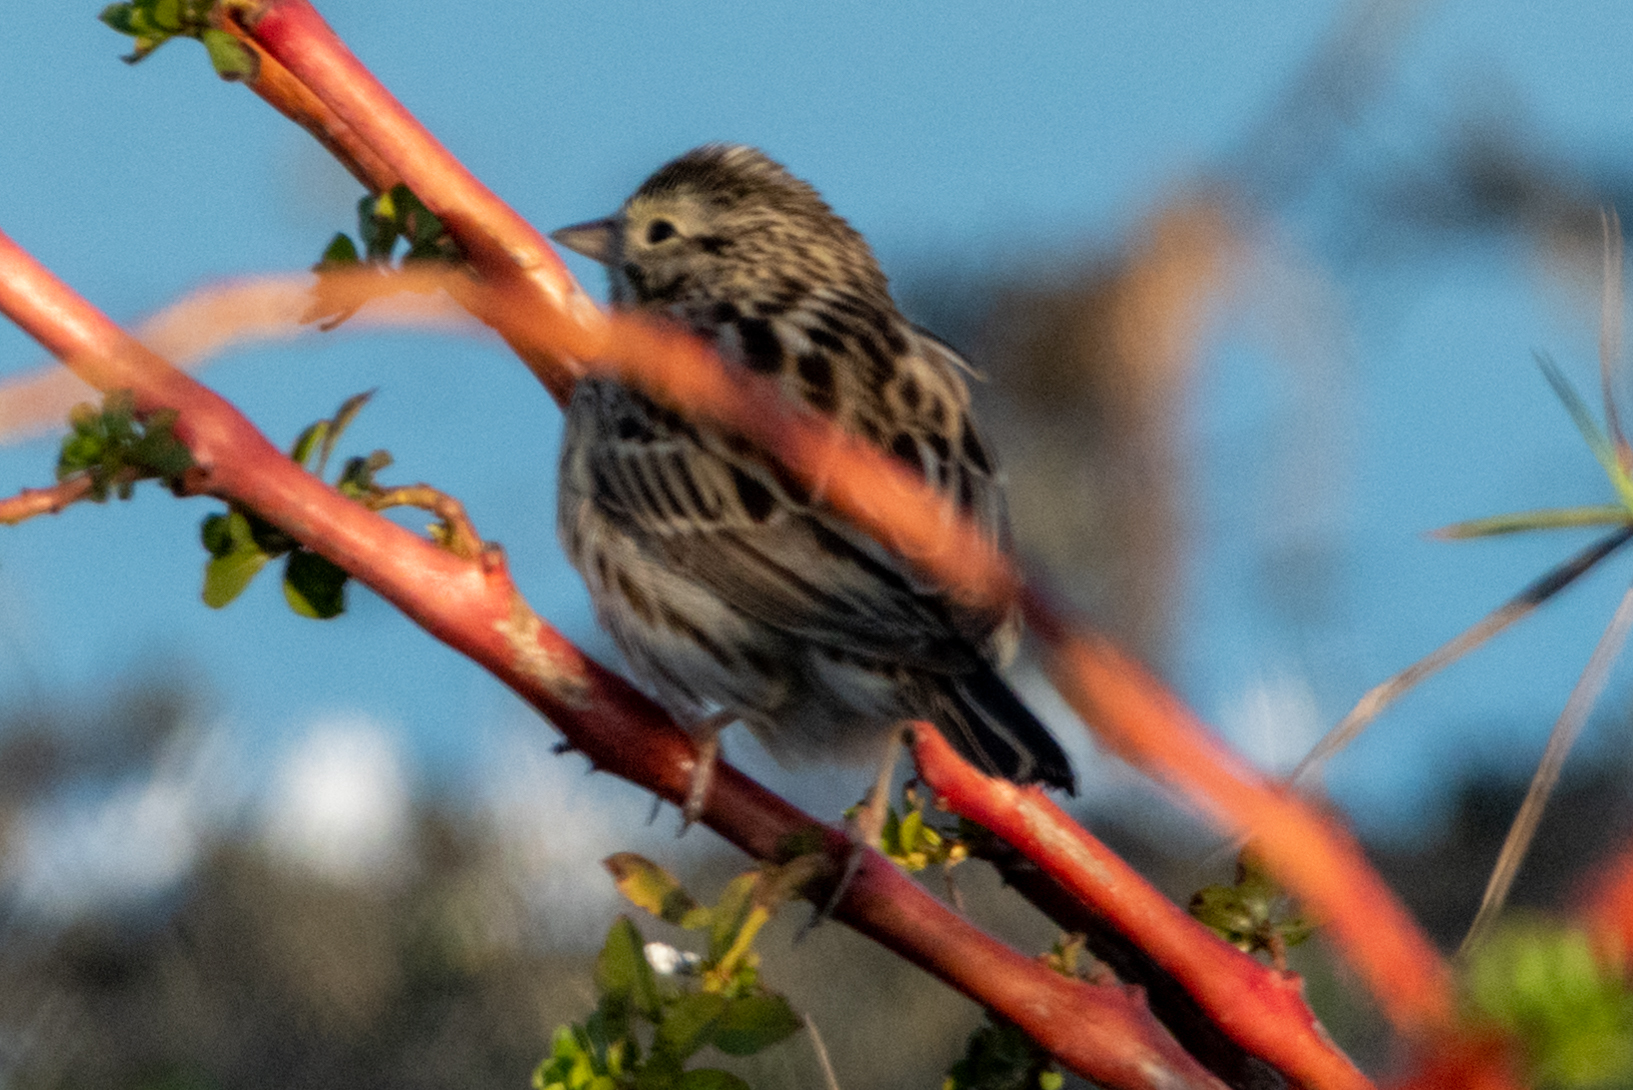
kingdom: Animalia
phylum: Chordata
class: Aves
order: Passeriformes
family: Passerellidae
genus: Passerculus
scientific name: Passerculus sandwichensis
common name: Savannah sparrow
